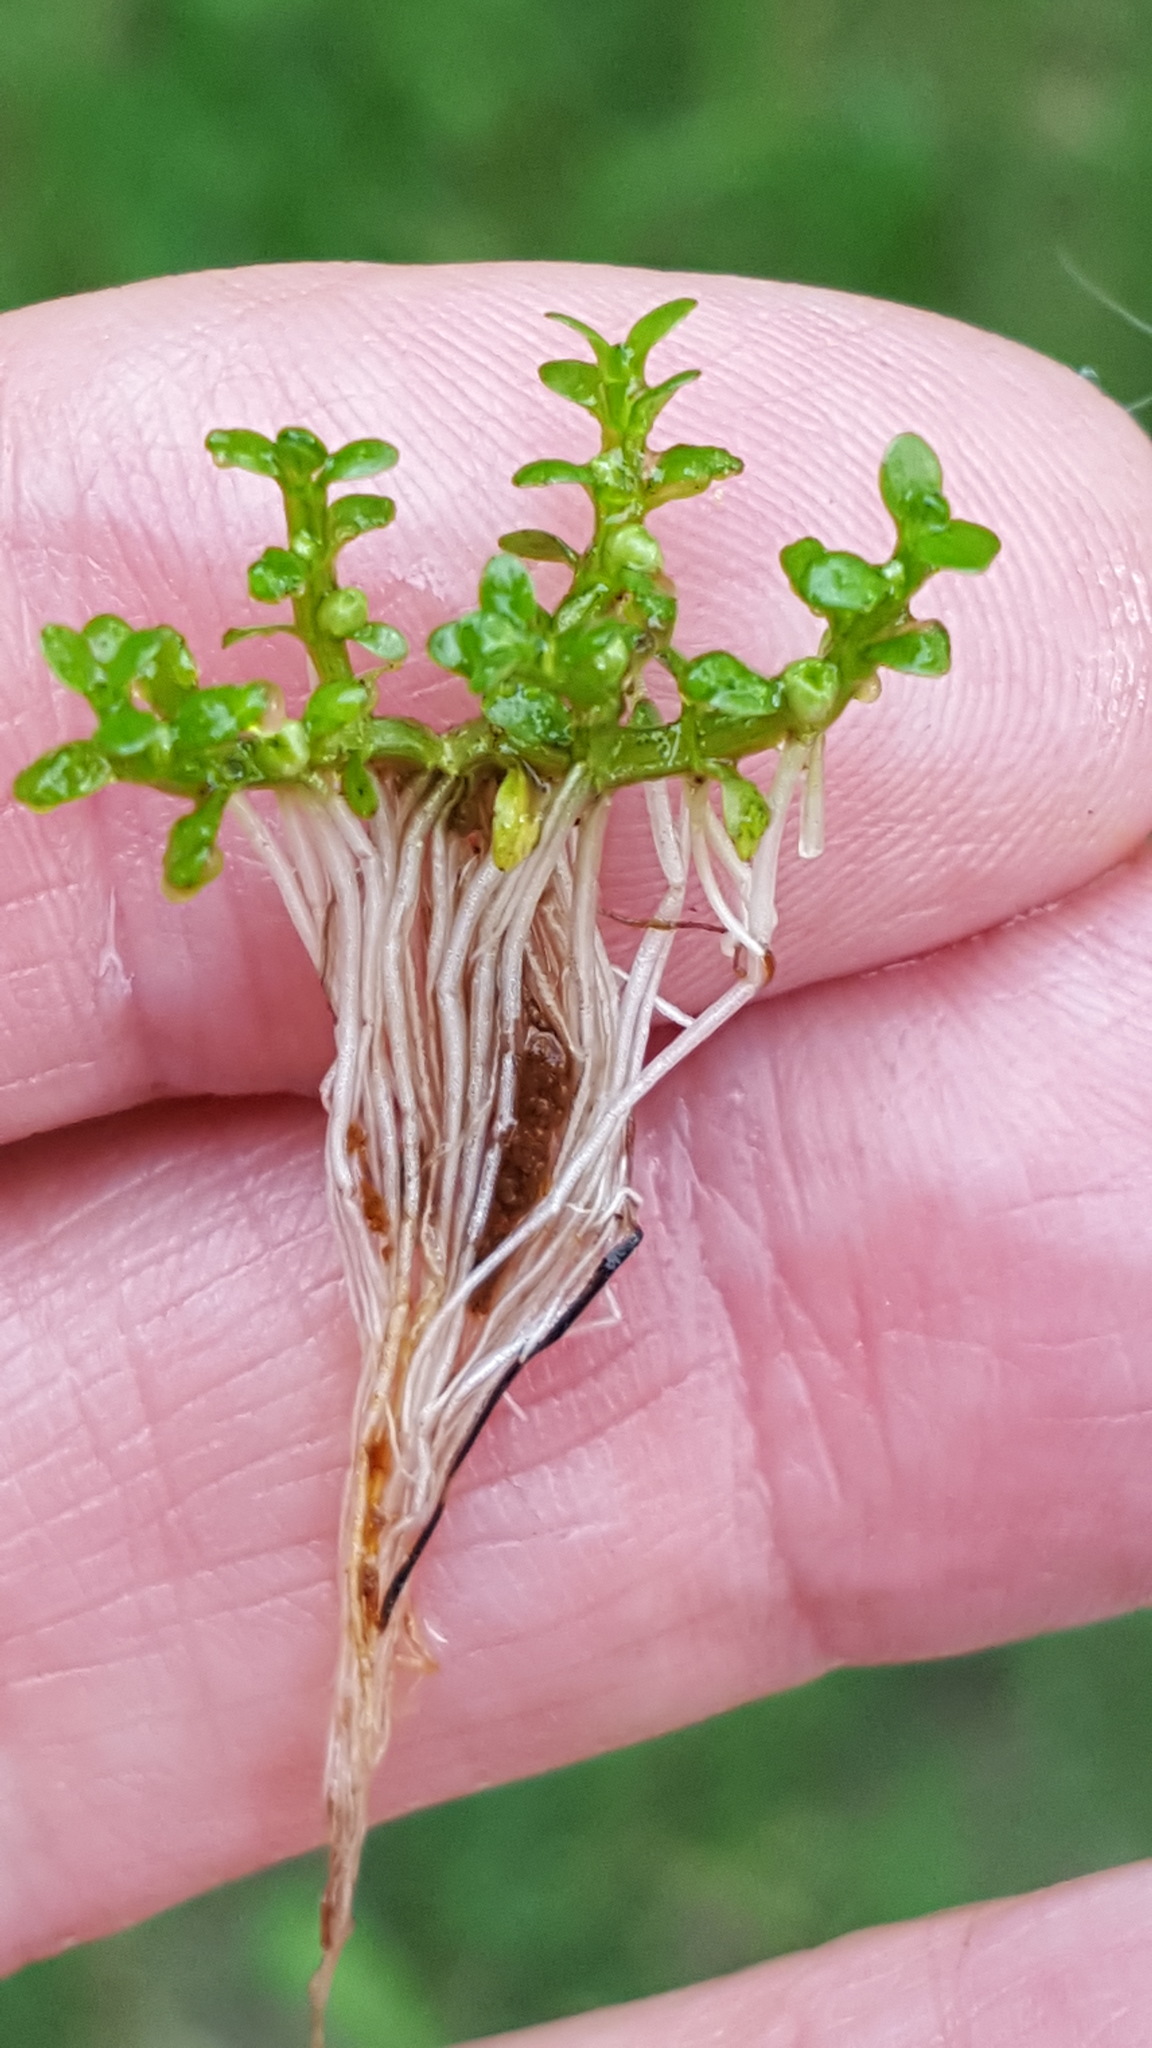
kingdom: Plantae
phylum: Tracheophyta
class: Magnoliopsida
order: Malpighiales
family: Elatinaceae
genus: Elatine
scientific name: Elatine minima
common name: Small waterwort
